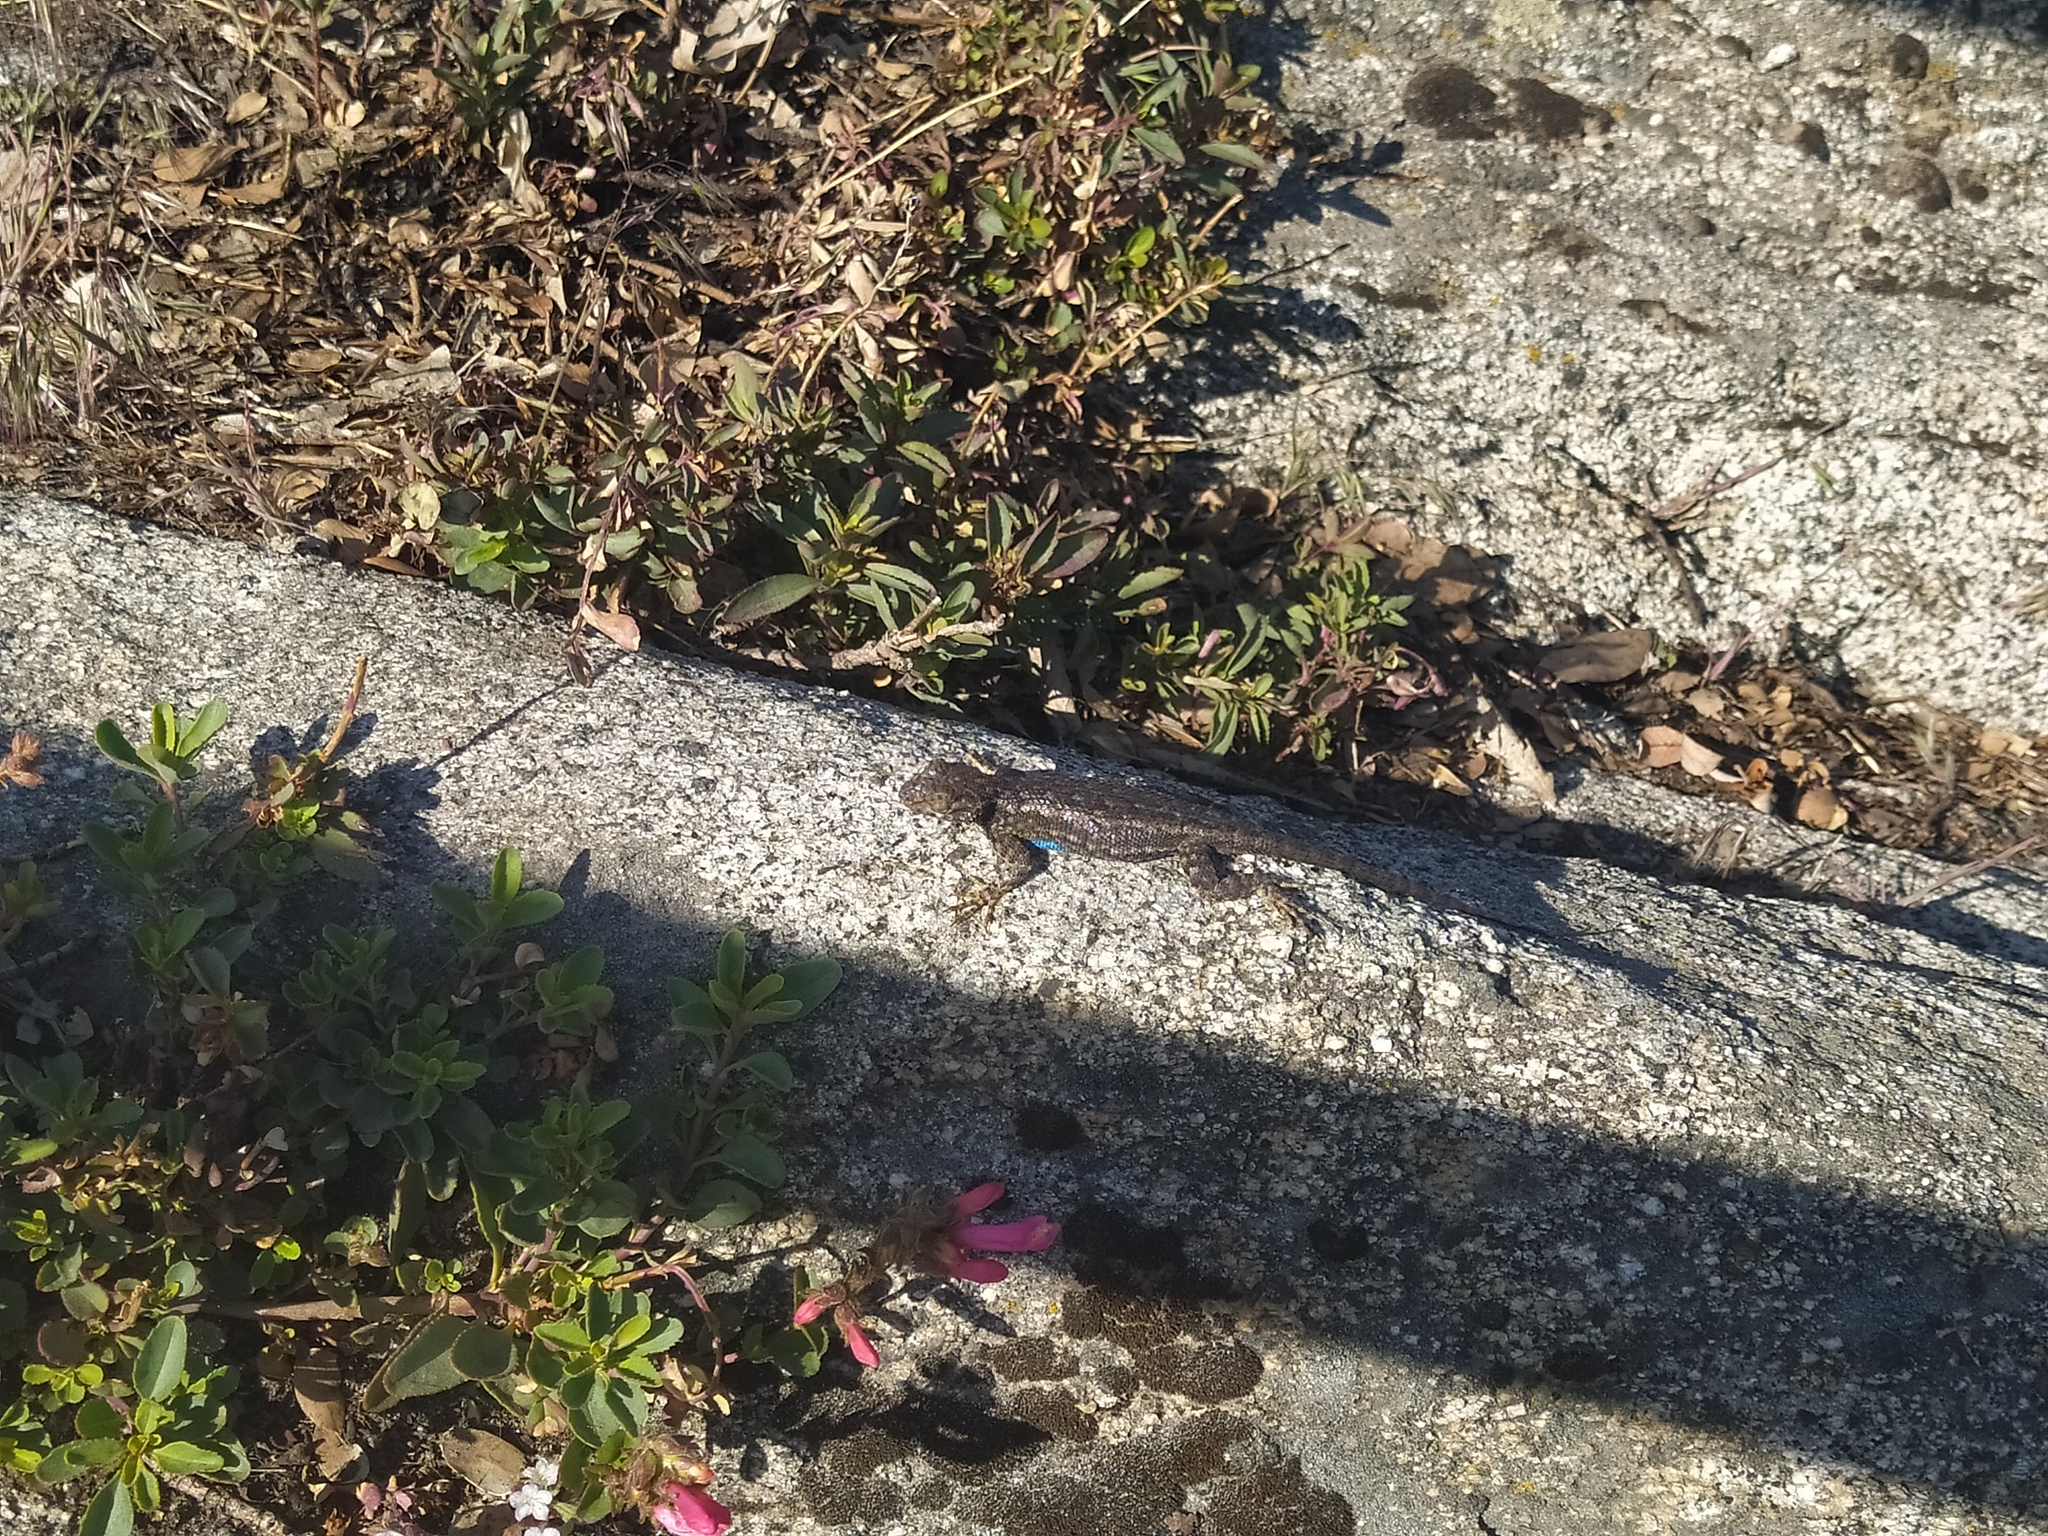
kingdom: Animalia
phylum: Chordata
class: Squamata
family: Phrynosomatidae
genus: Sceloporus
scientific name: Sceloporus graciosus
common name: Sagebrush lizard
